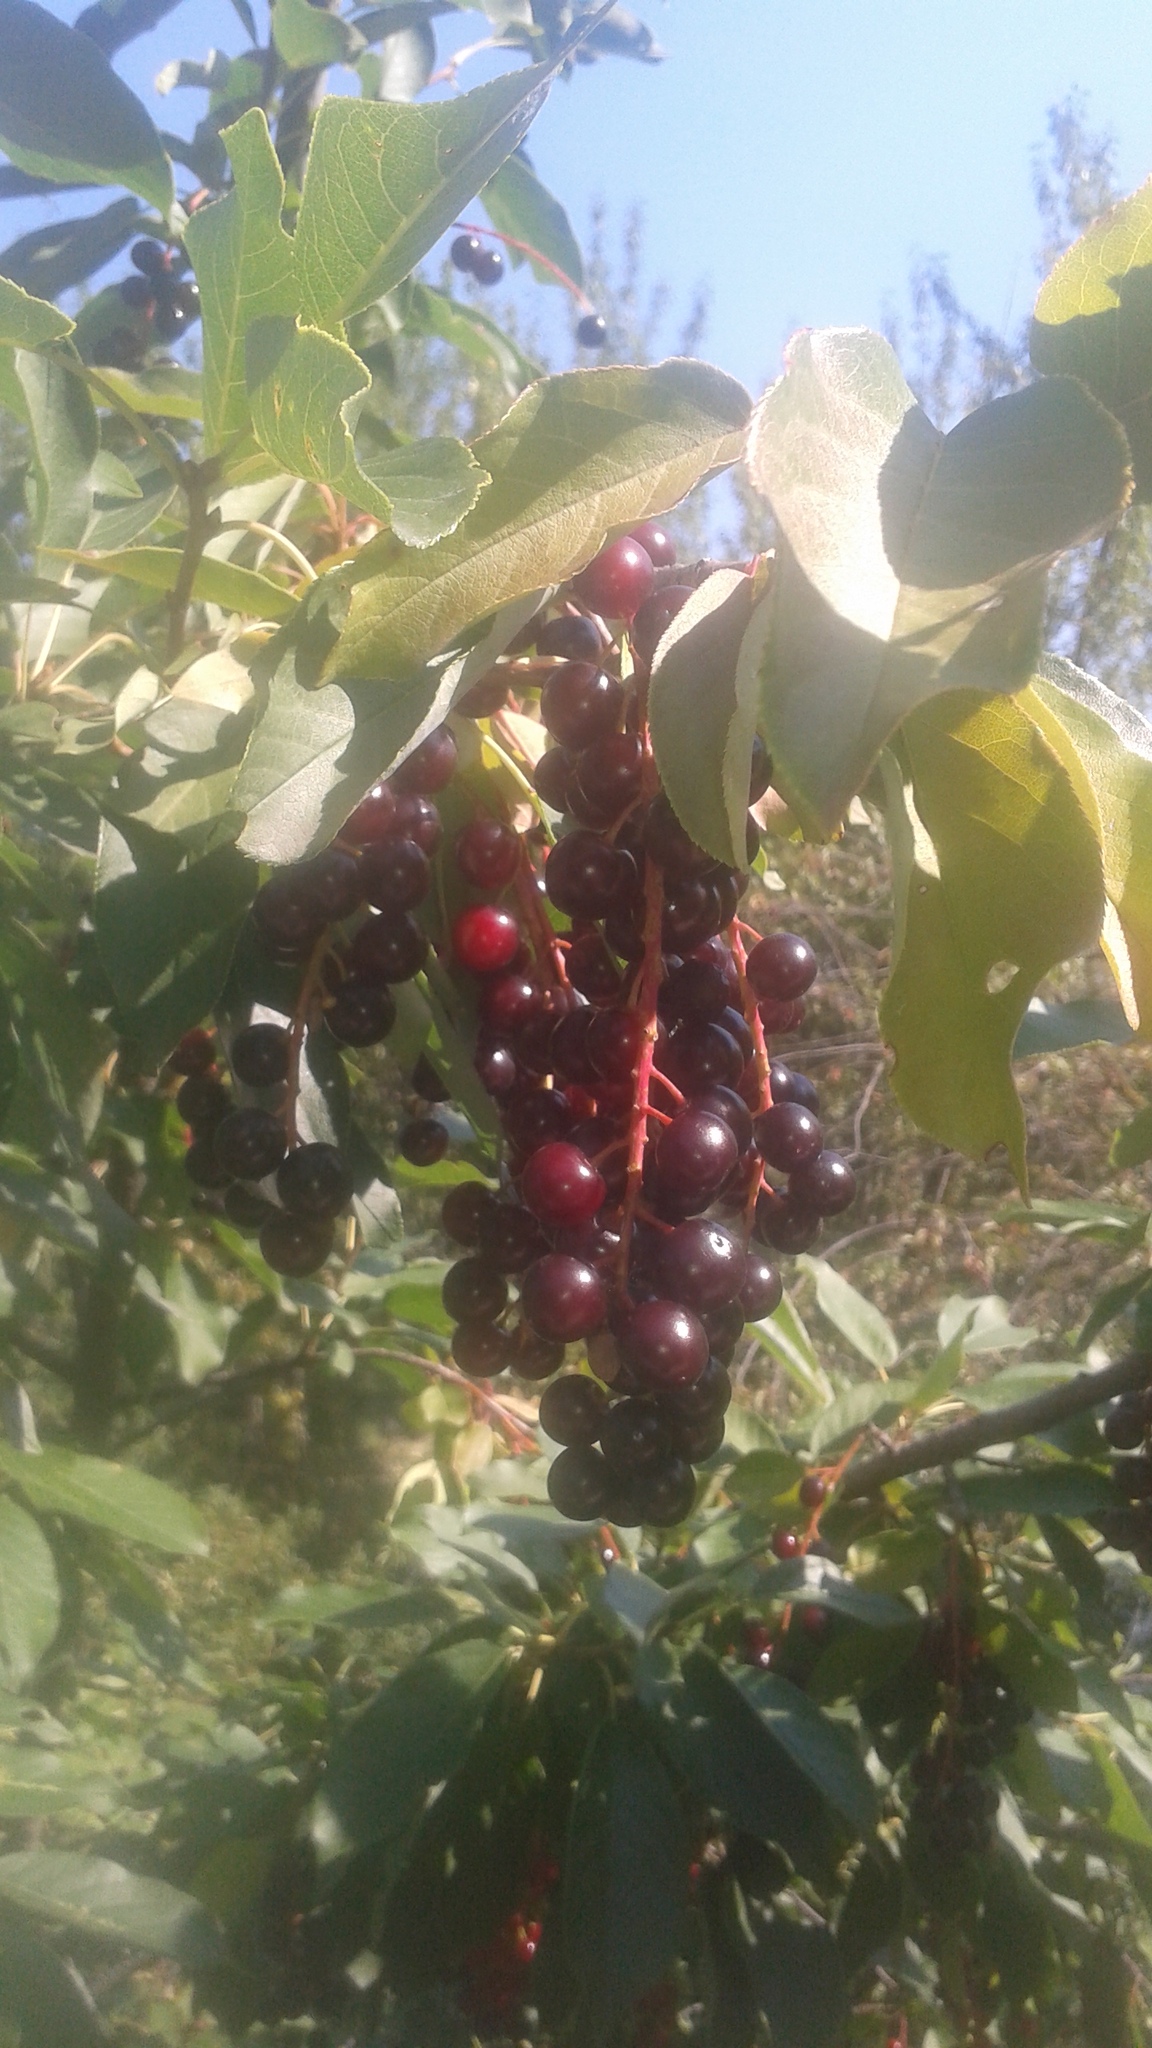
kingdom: Plantae
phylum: Tracheophyta
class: Magnoliopsida
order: Rosales
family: Rosaceae
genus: Prunus
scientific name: Prunus virginiana
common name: Chokecherry
